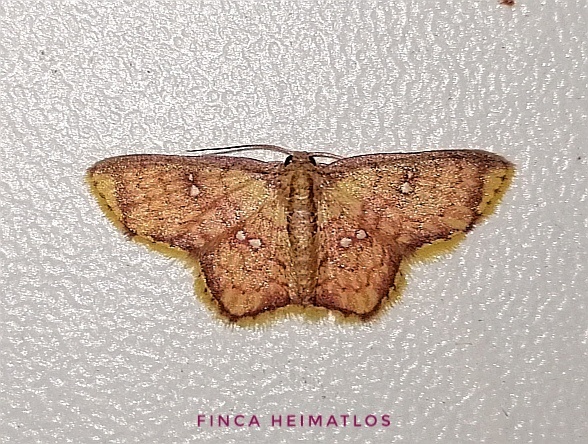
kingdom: Animalia
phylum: Arthropoda
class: Insecta
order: Lepidoptera
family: Geometridae
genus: Tricentra
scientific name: Tricentra benevisio
